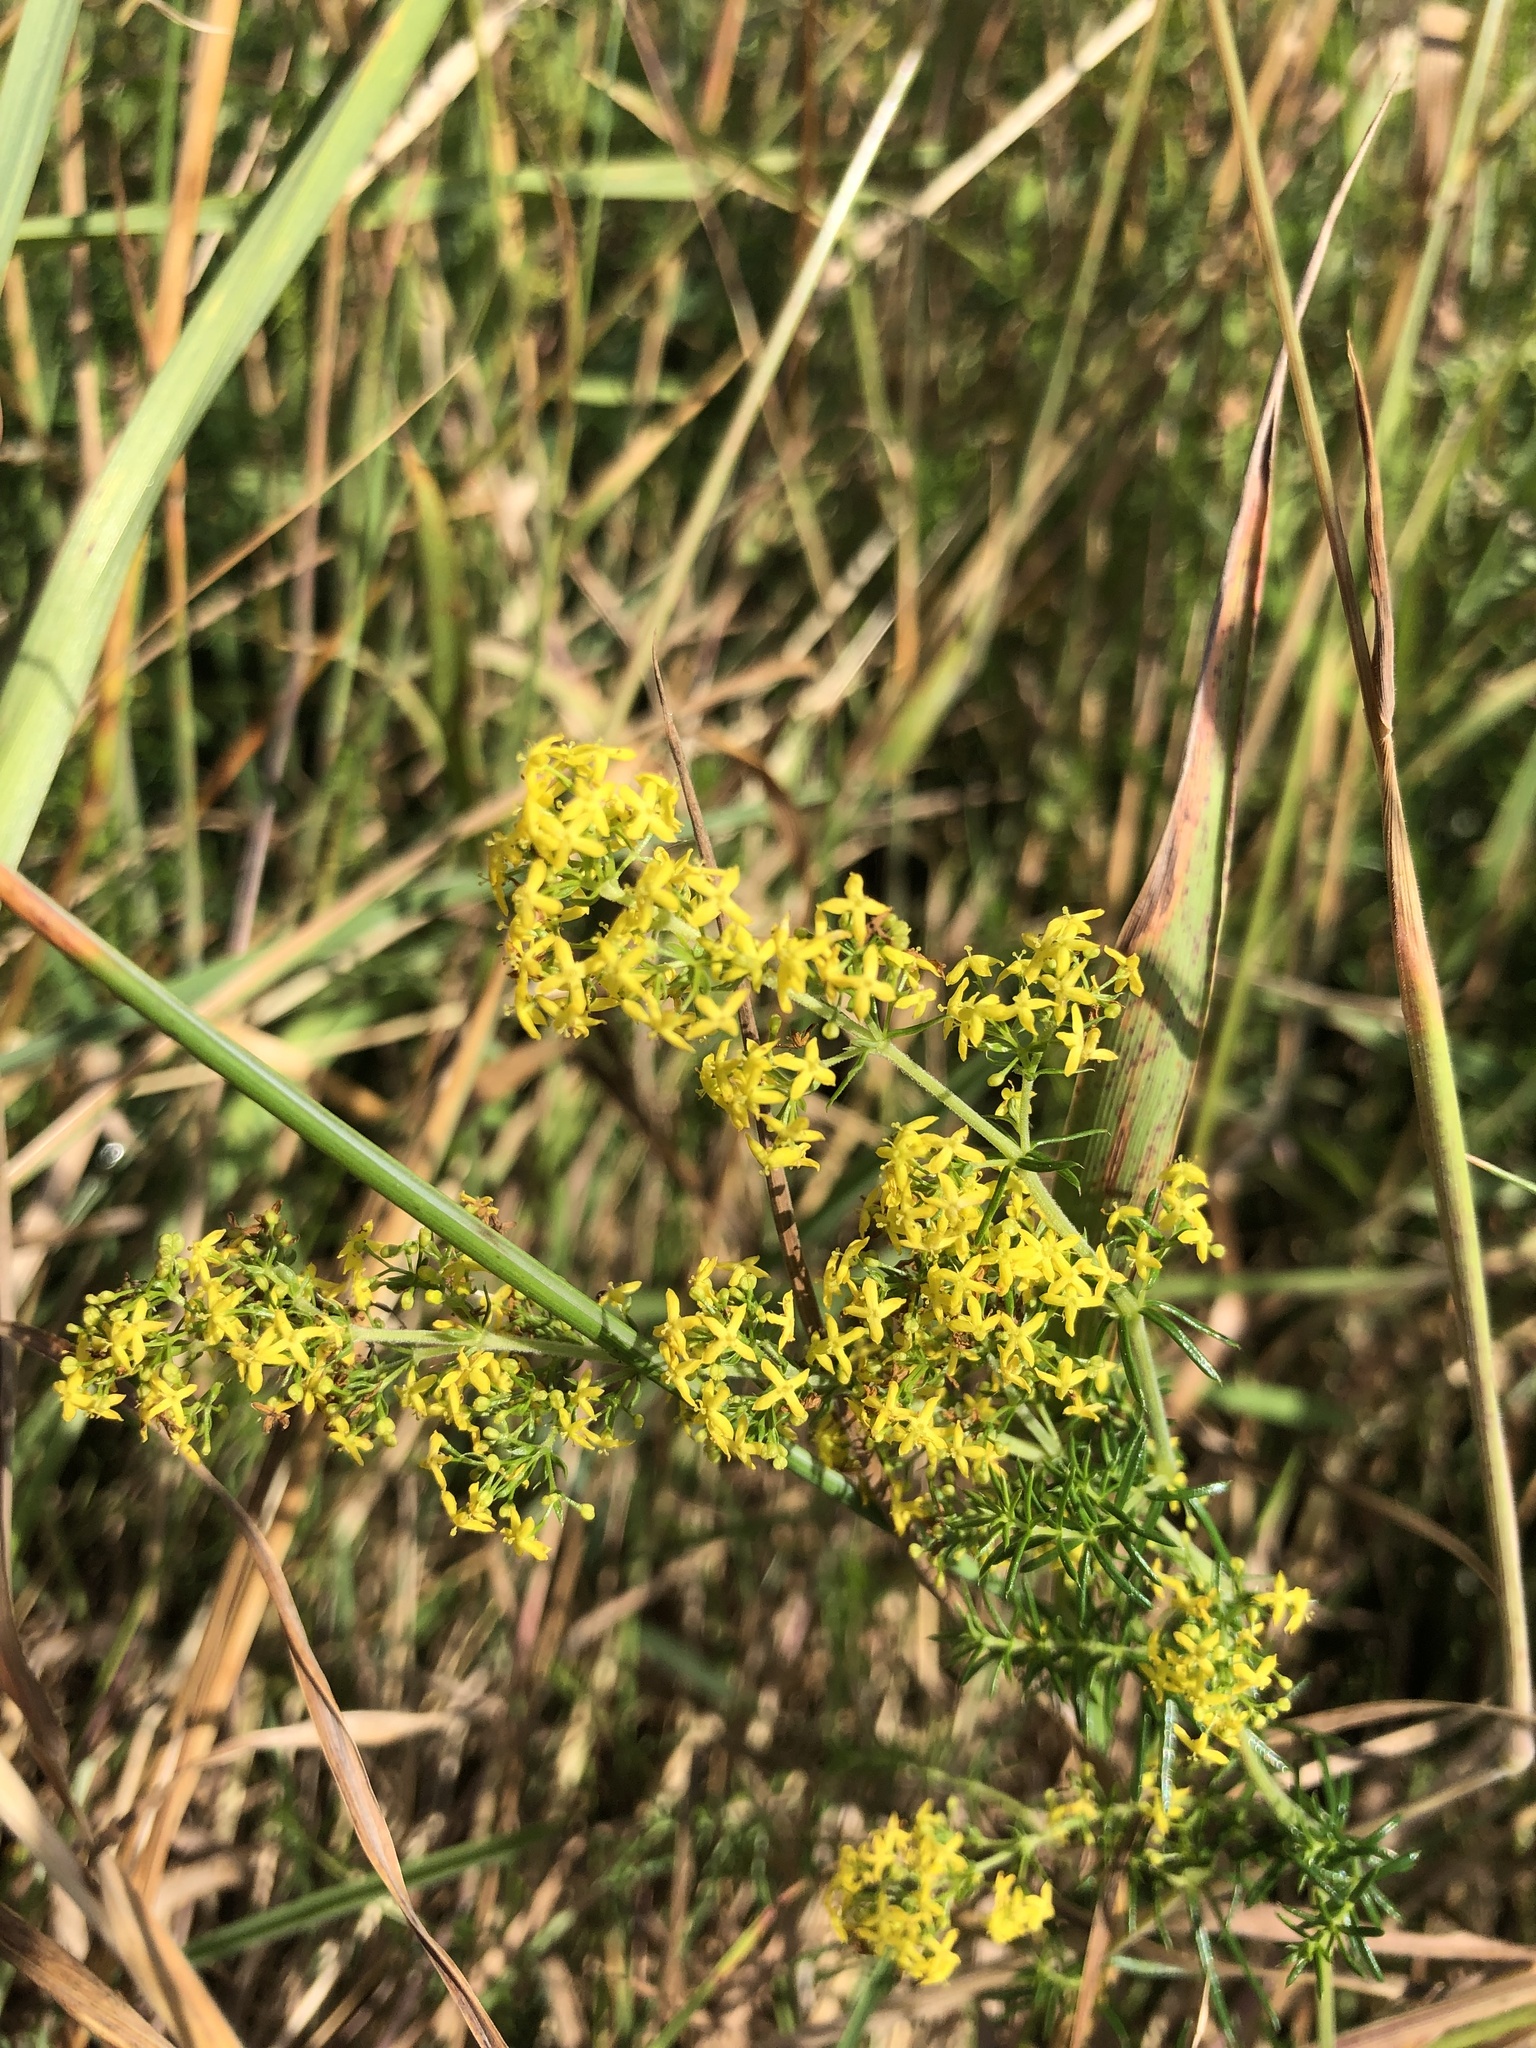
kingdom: Plantae
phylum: Tracheophyta
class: Magnoliopsida
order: Gentianales
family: Rubiaceae
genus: Galium
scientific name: Galium verum
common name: Lady's bedstraw
